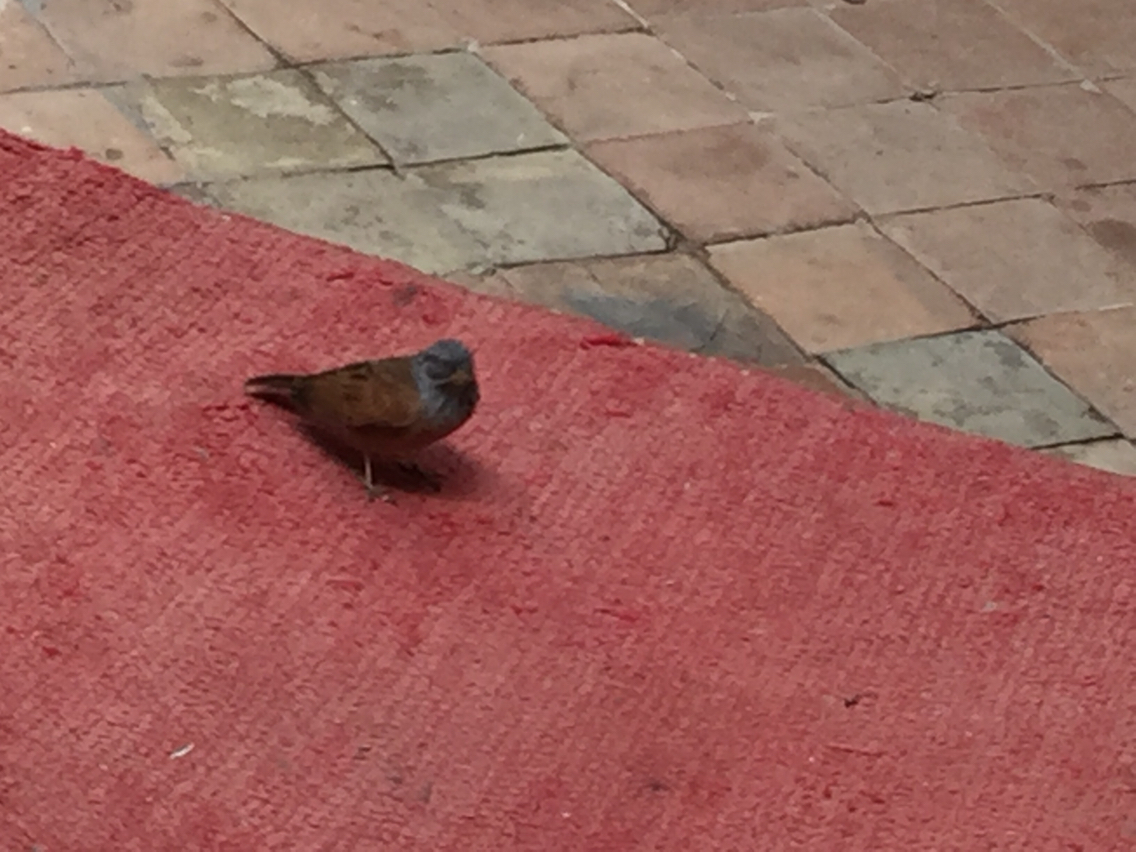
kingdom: Animalia
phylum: Chordata
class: Aves
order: Passeriformes
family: Emberizidae
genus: Emberiza
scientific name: Emberiza sahari
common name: House bunting
